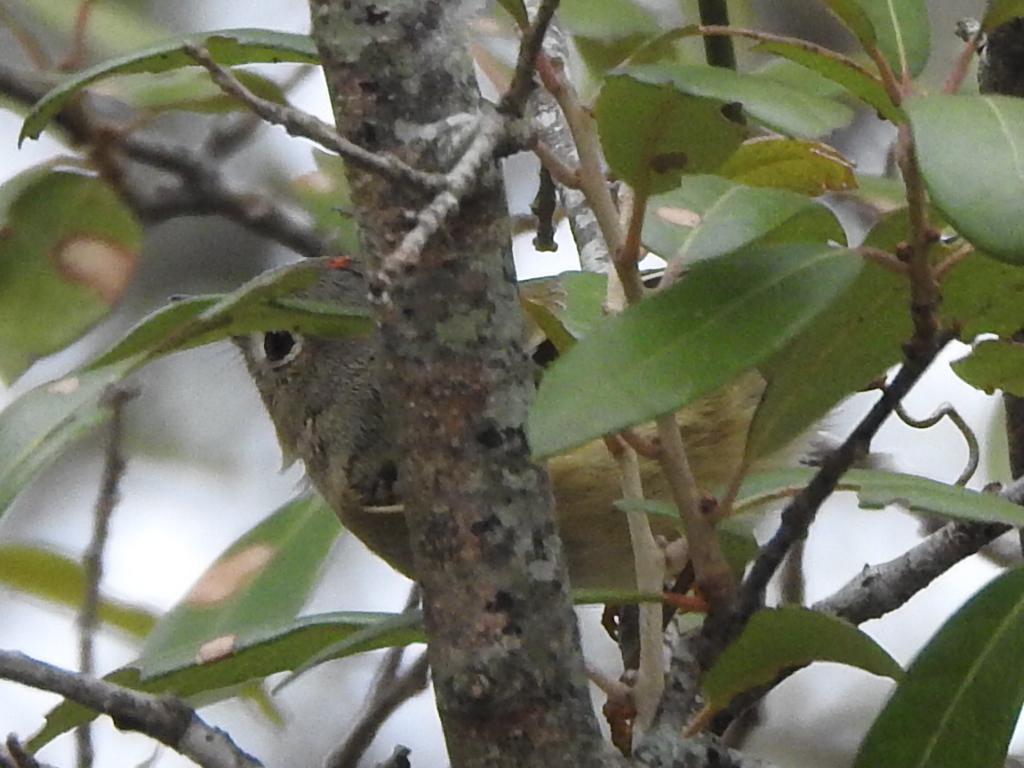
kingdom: Animalia
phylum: Chordata
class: Aves
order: Passeriformes
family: Regulidae
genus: Regulus
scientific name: Regulus calendula
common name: Ruby-crowned kinglet
